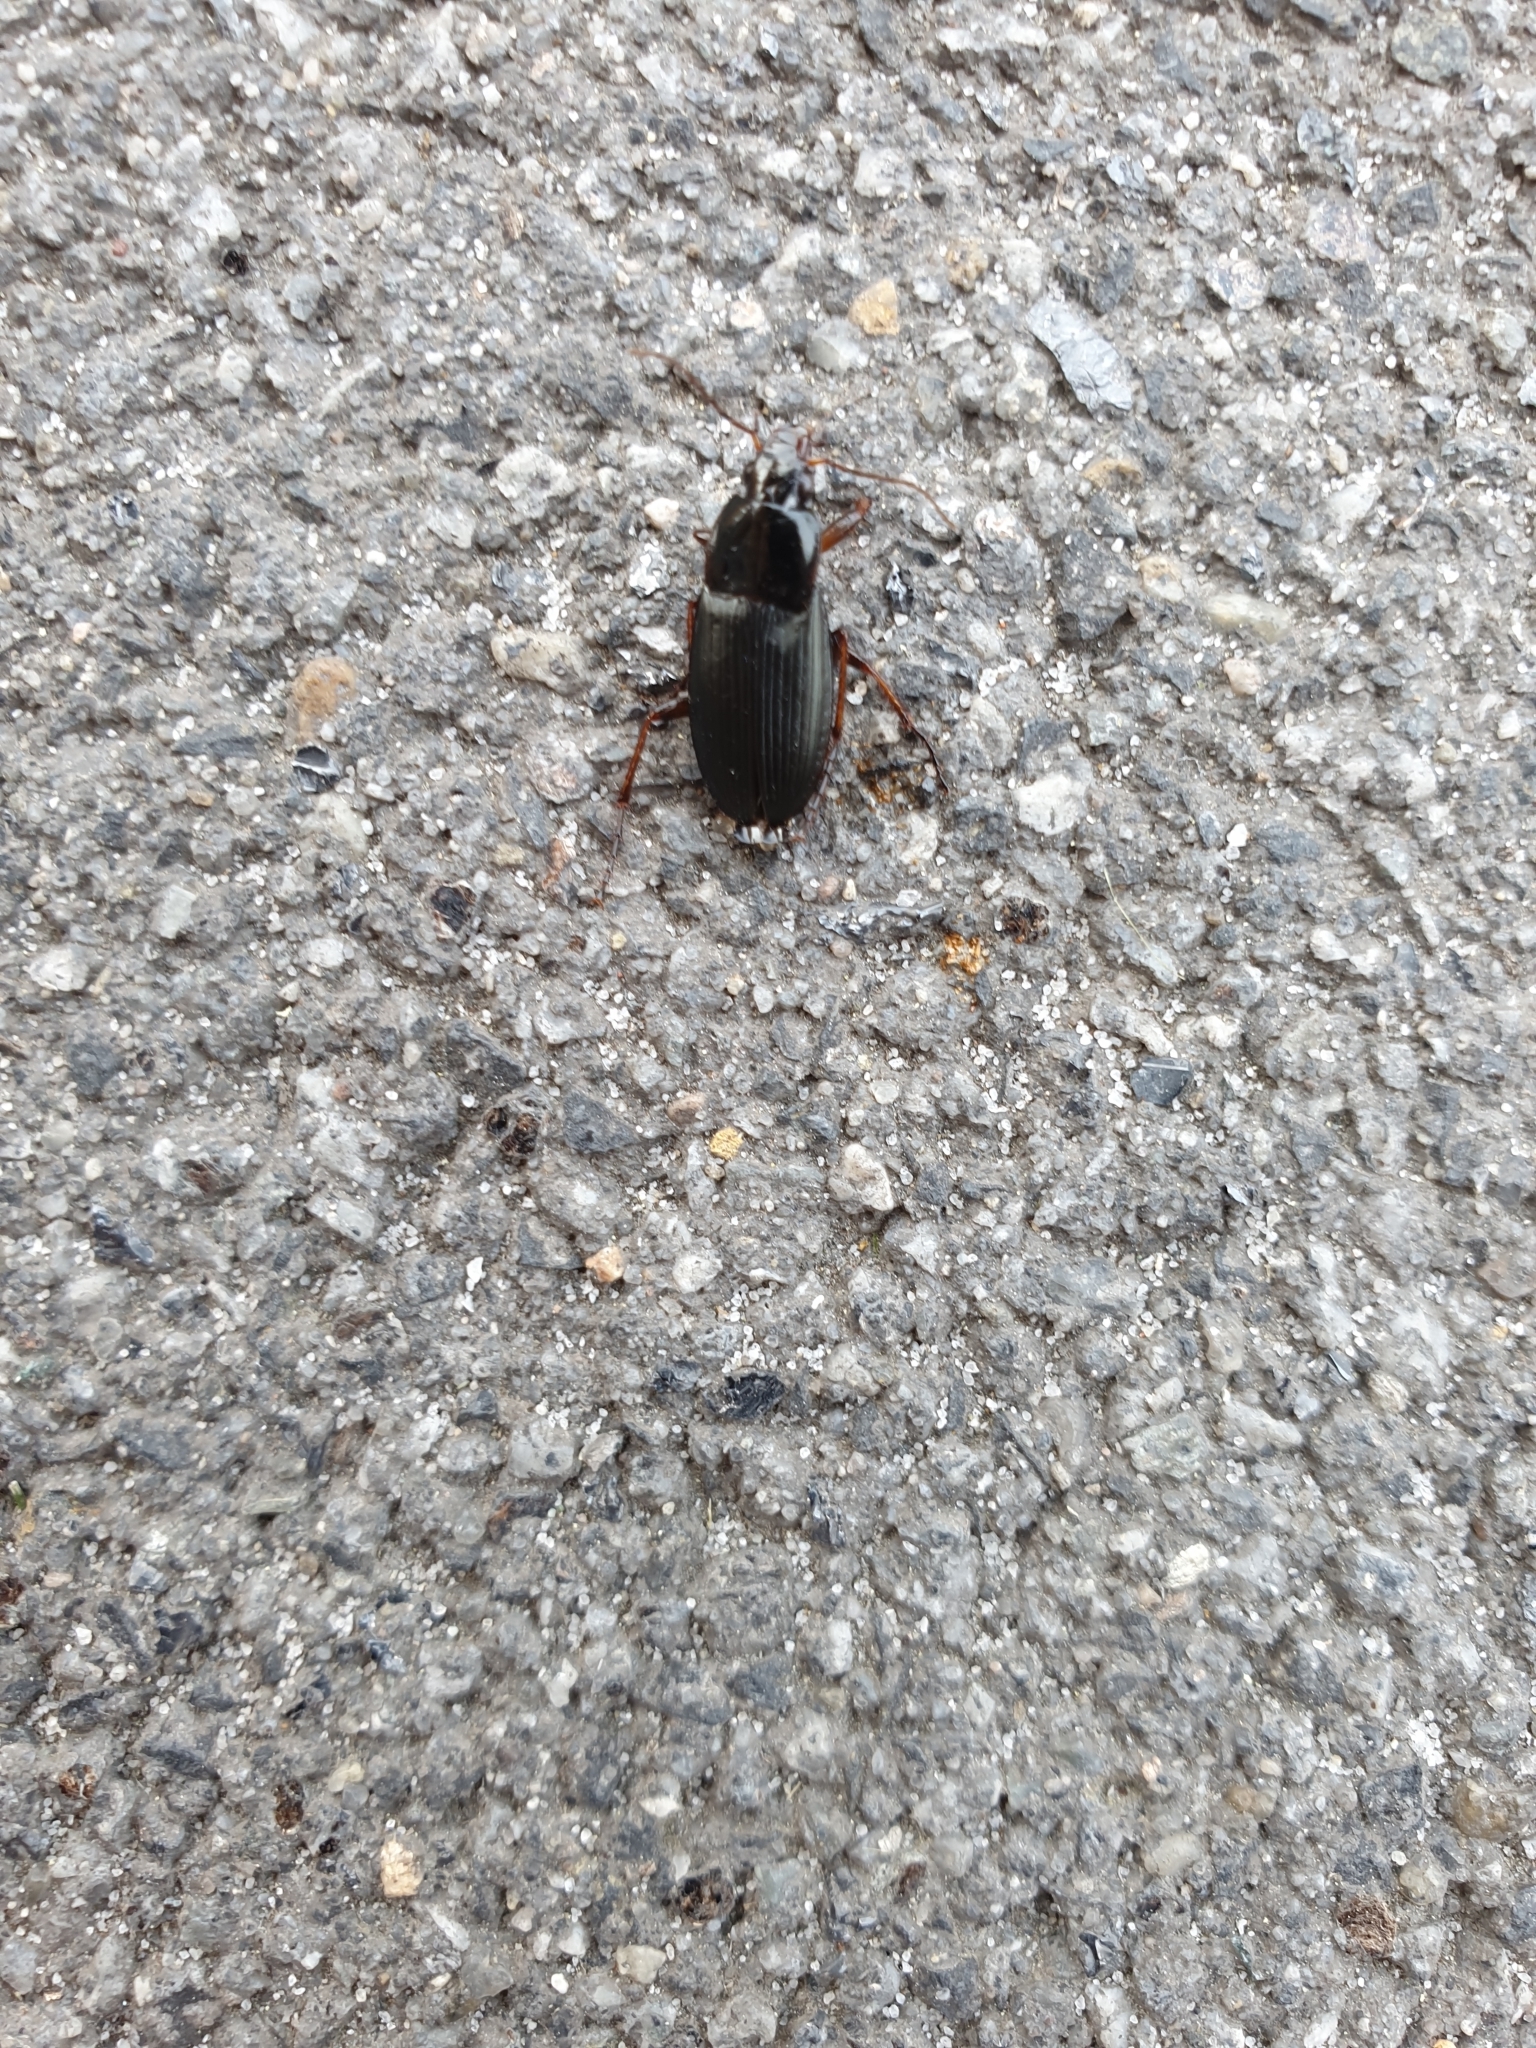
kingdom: Animalia
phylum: Arthropoda
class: Insecta
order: Coleoptera
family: Carabidae
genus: Calathus
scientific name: Calathus fuscipes
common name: Dark-footed harp ground beetle
